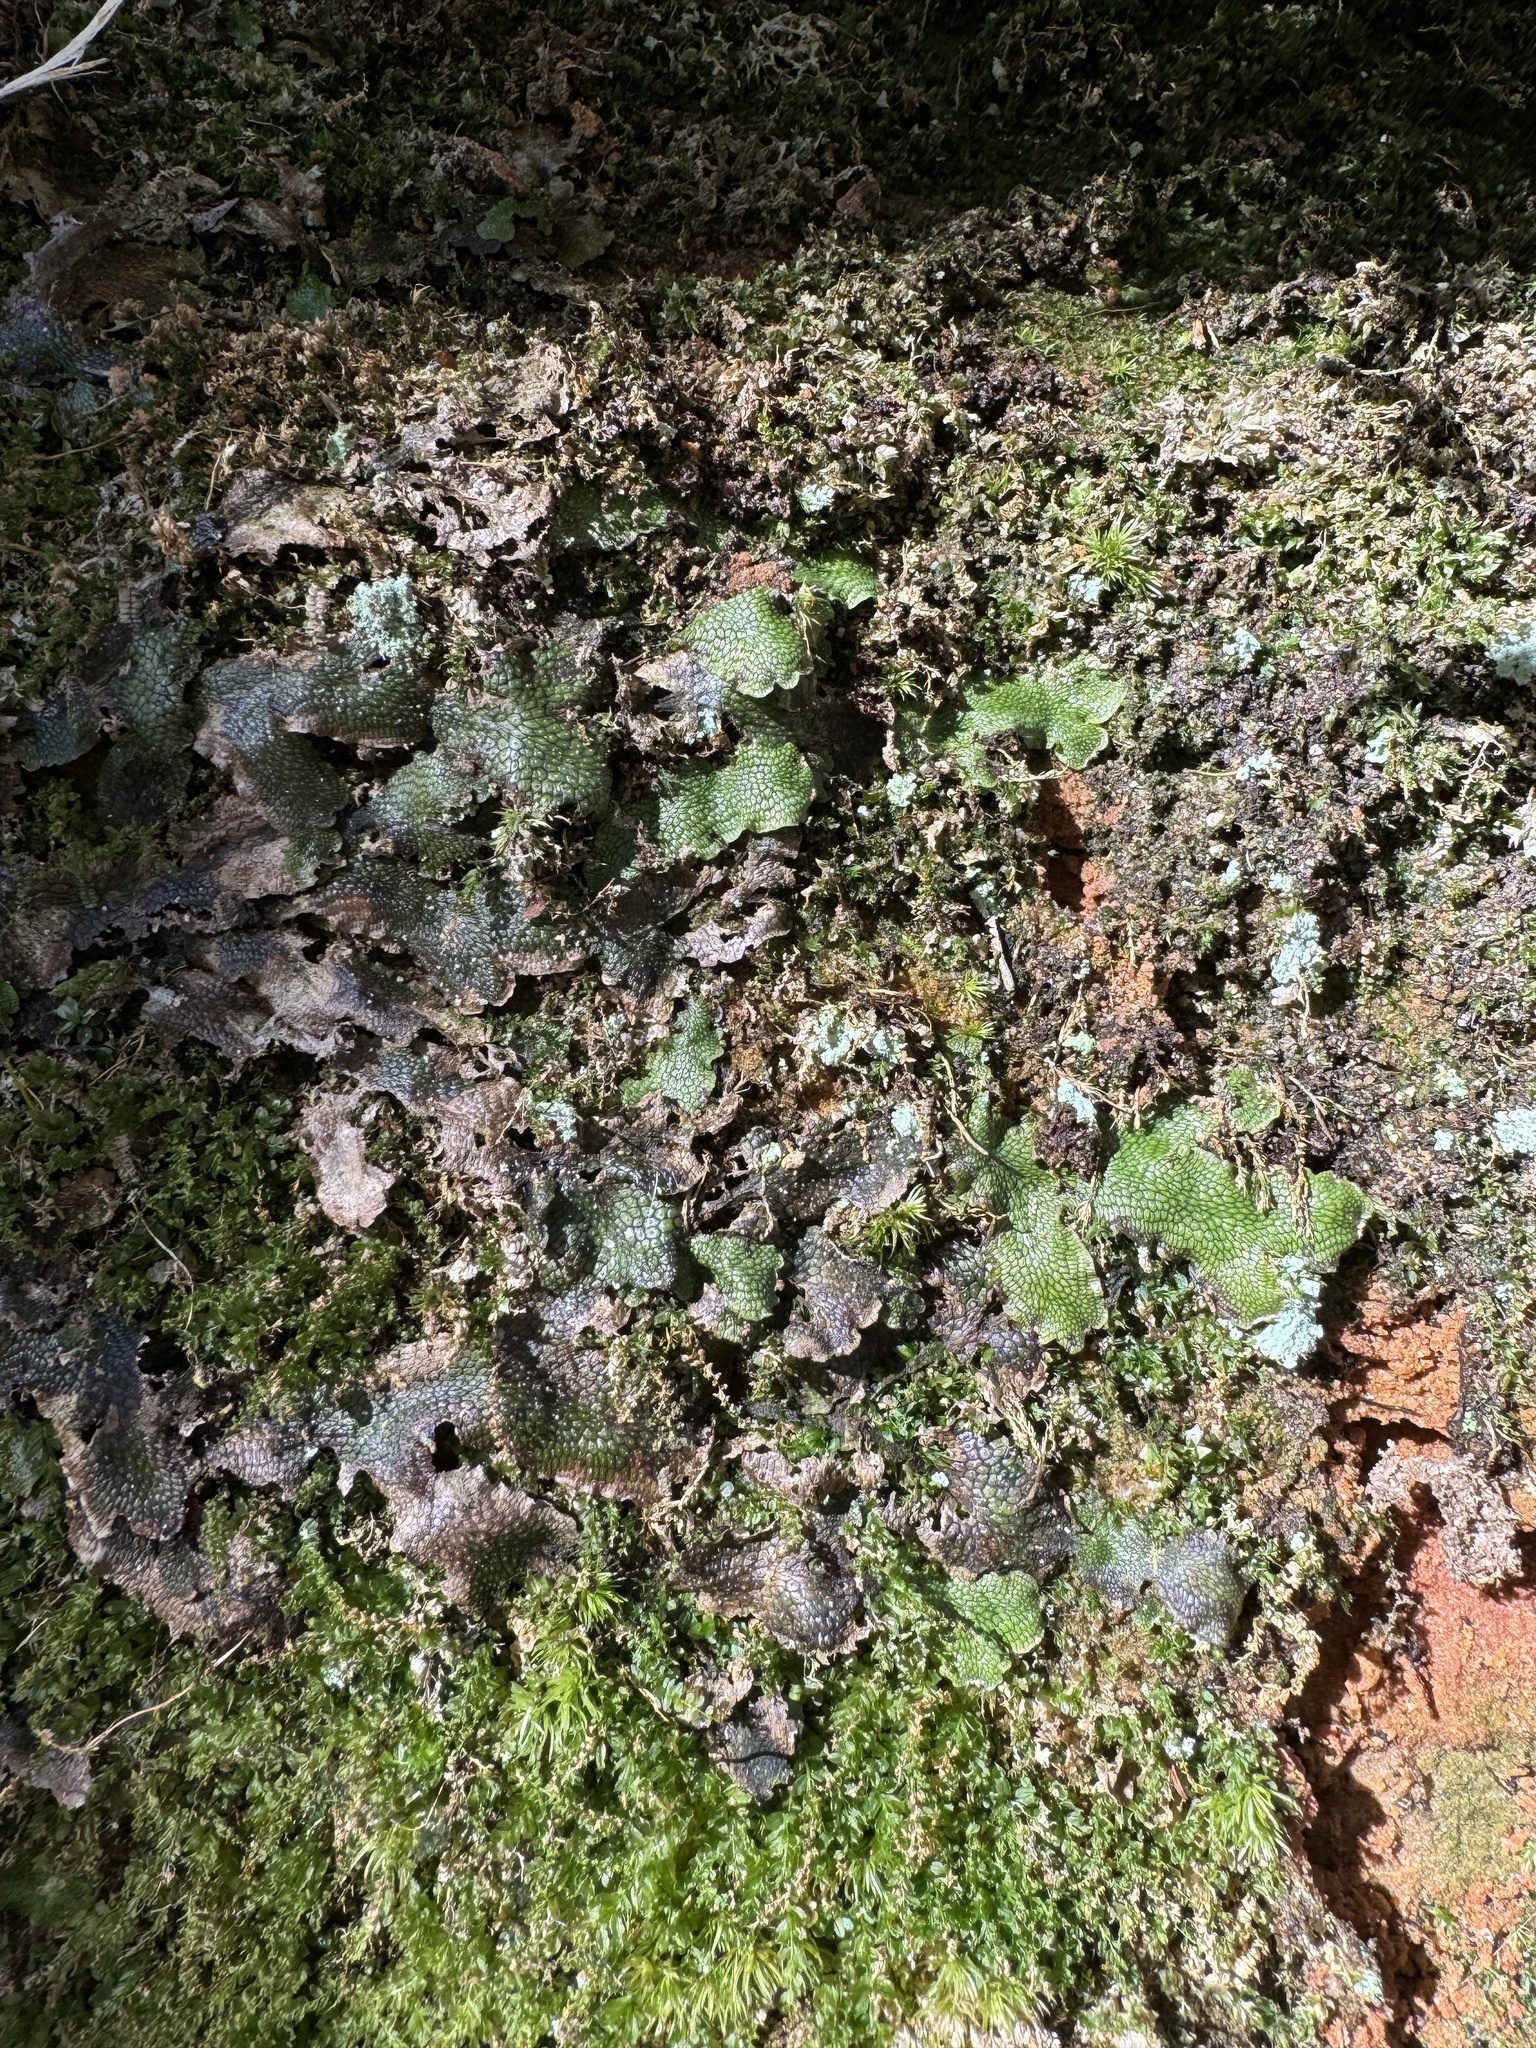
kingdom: Plantae
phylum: Marchantiophyta
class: Marchantiopsida
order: Marchantiales
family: Conocephalaceae
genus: Conocephalum
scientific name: Conocephalum salebrosum
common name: Cat-tongue liverwort
